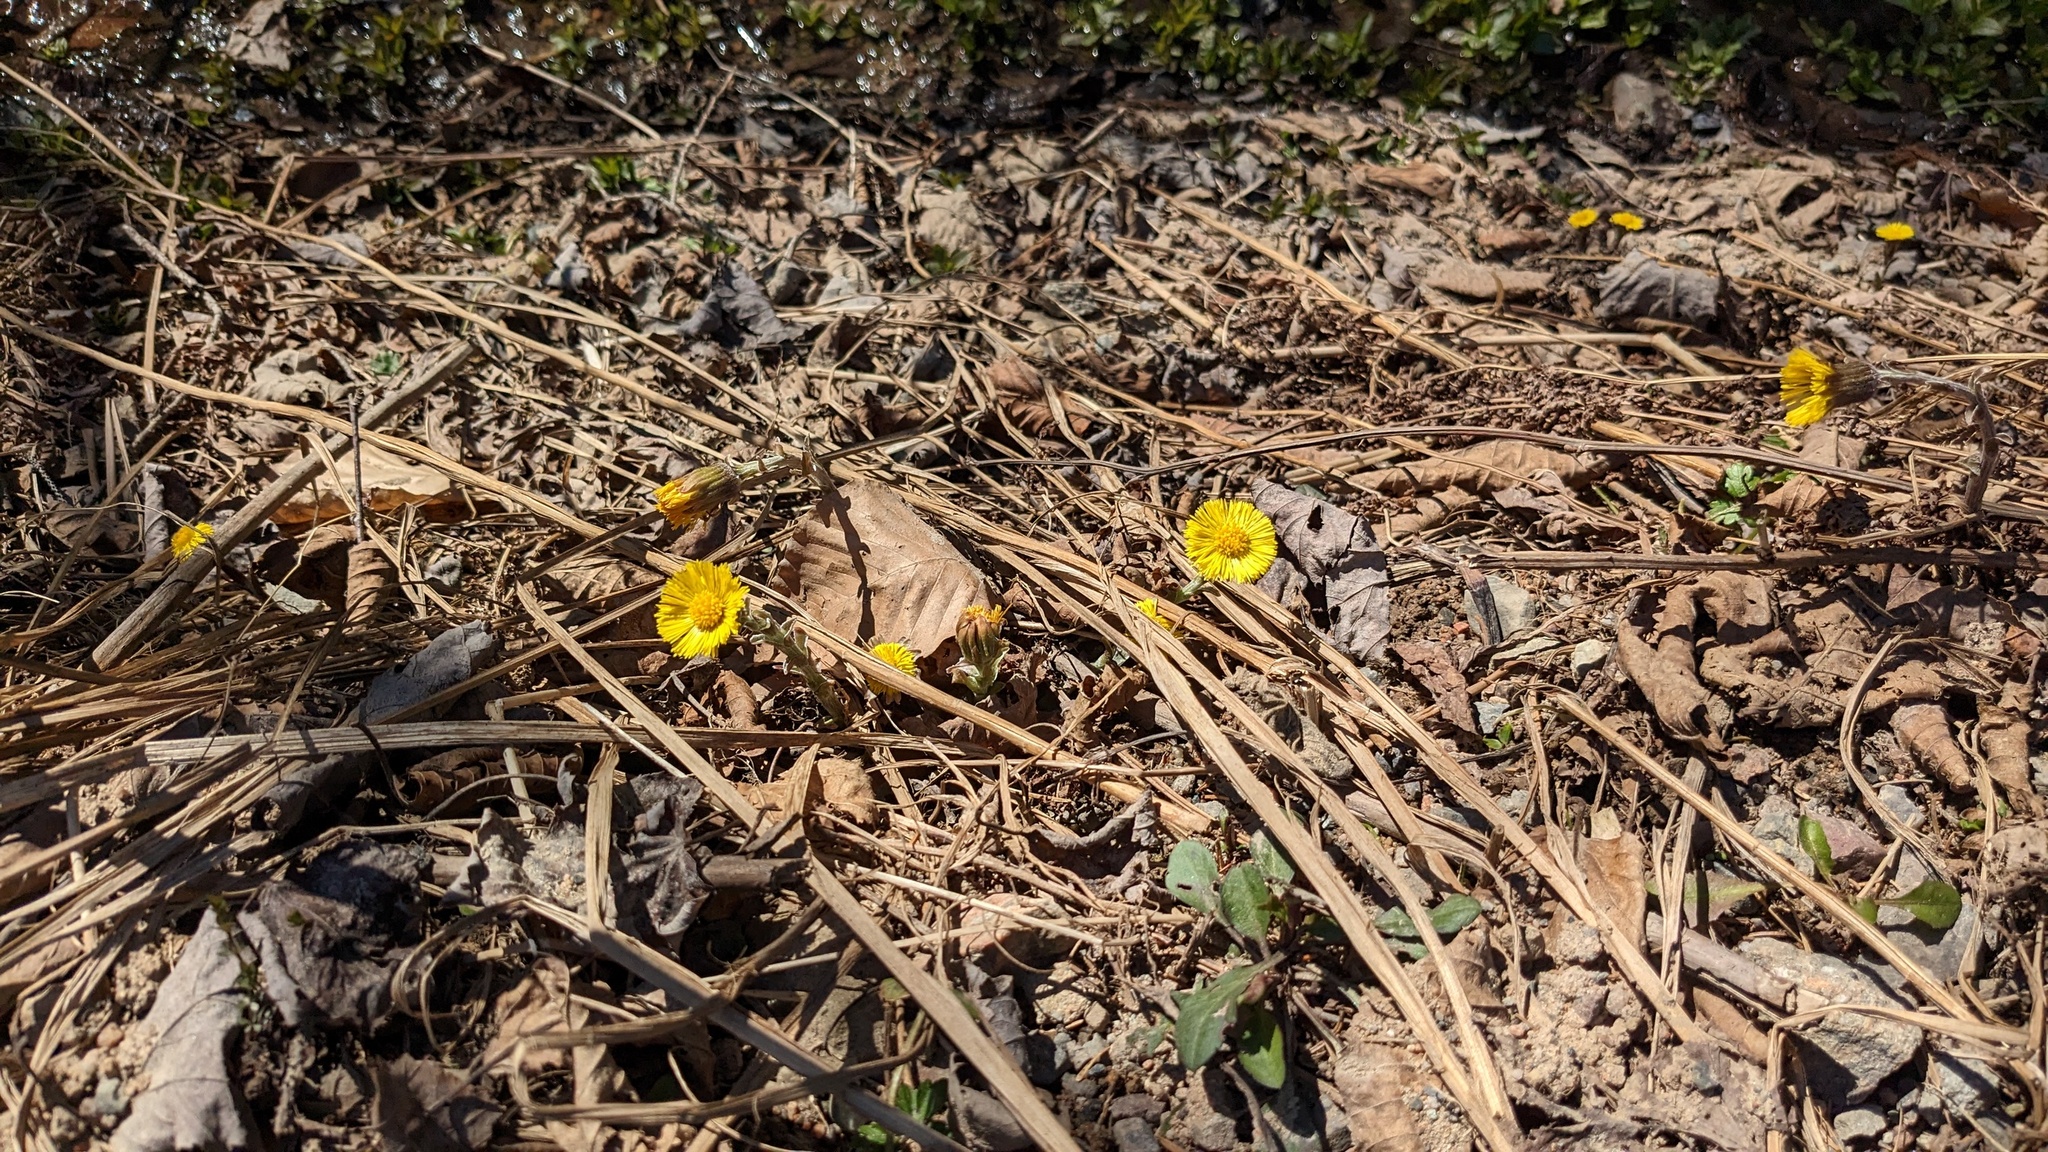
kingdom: Plantae
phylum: Tracheophyta
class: Magnoliopsida
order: Asterales
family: Asteraceae
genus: Tussilago
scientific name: Tussilago farfara
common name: Coltsfoot
